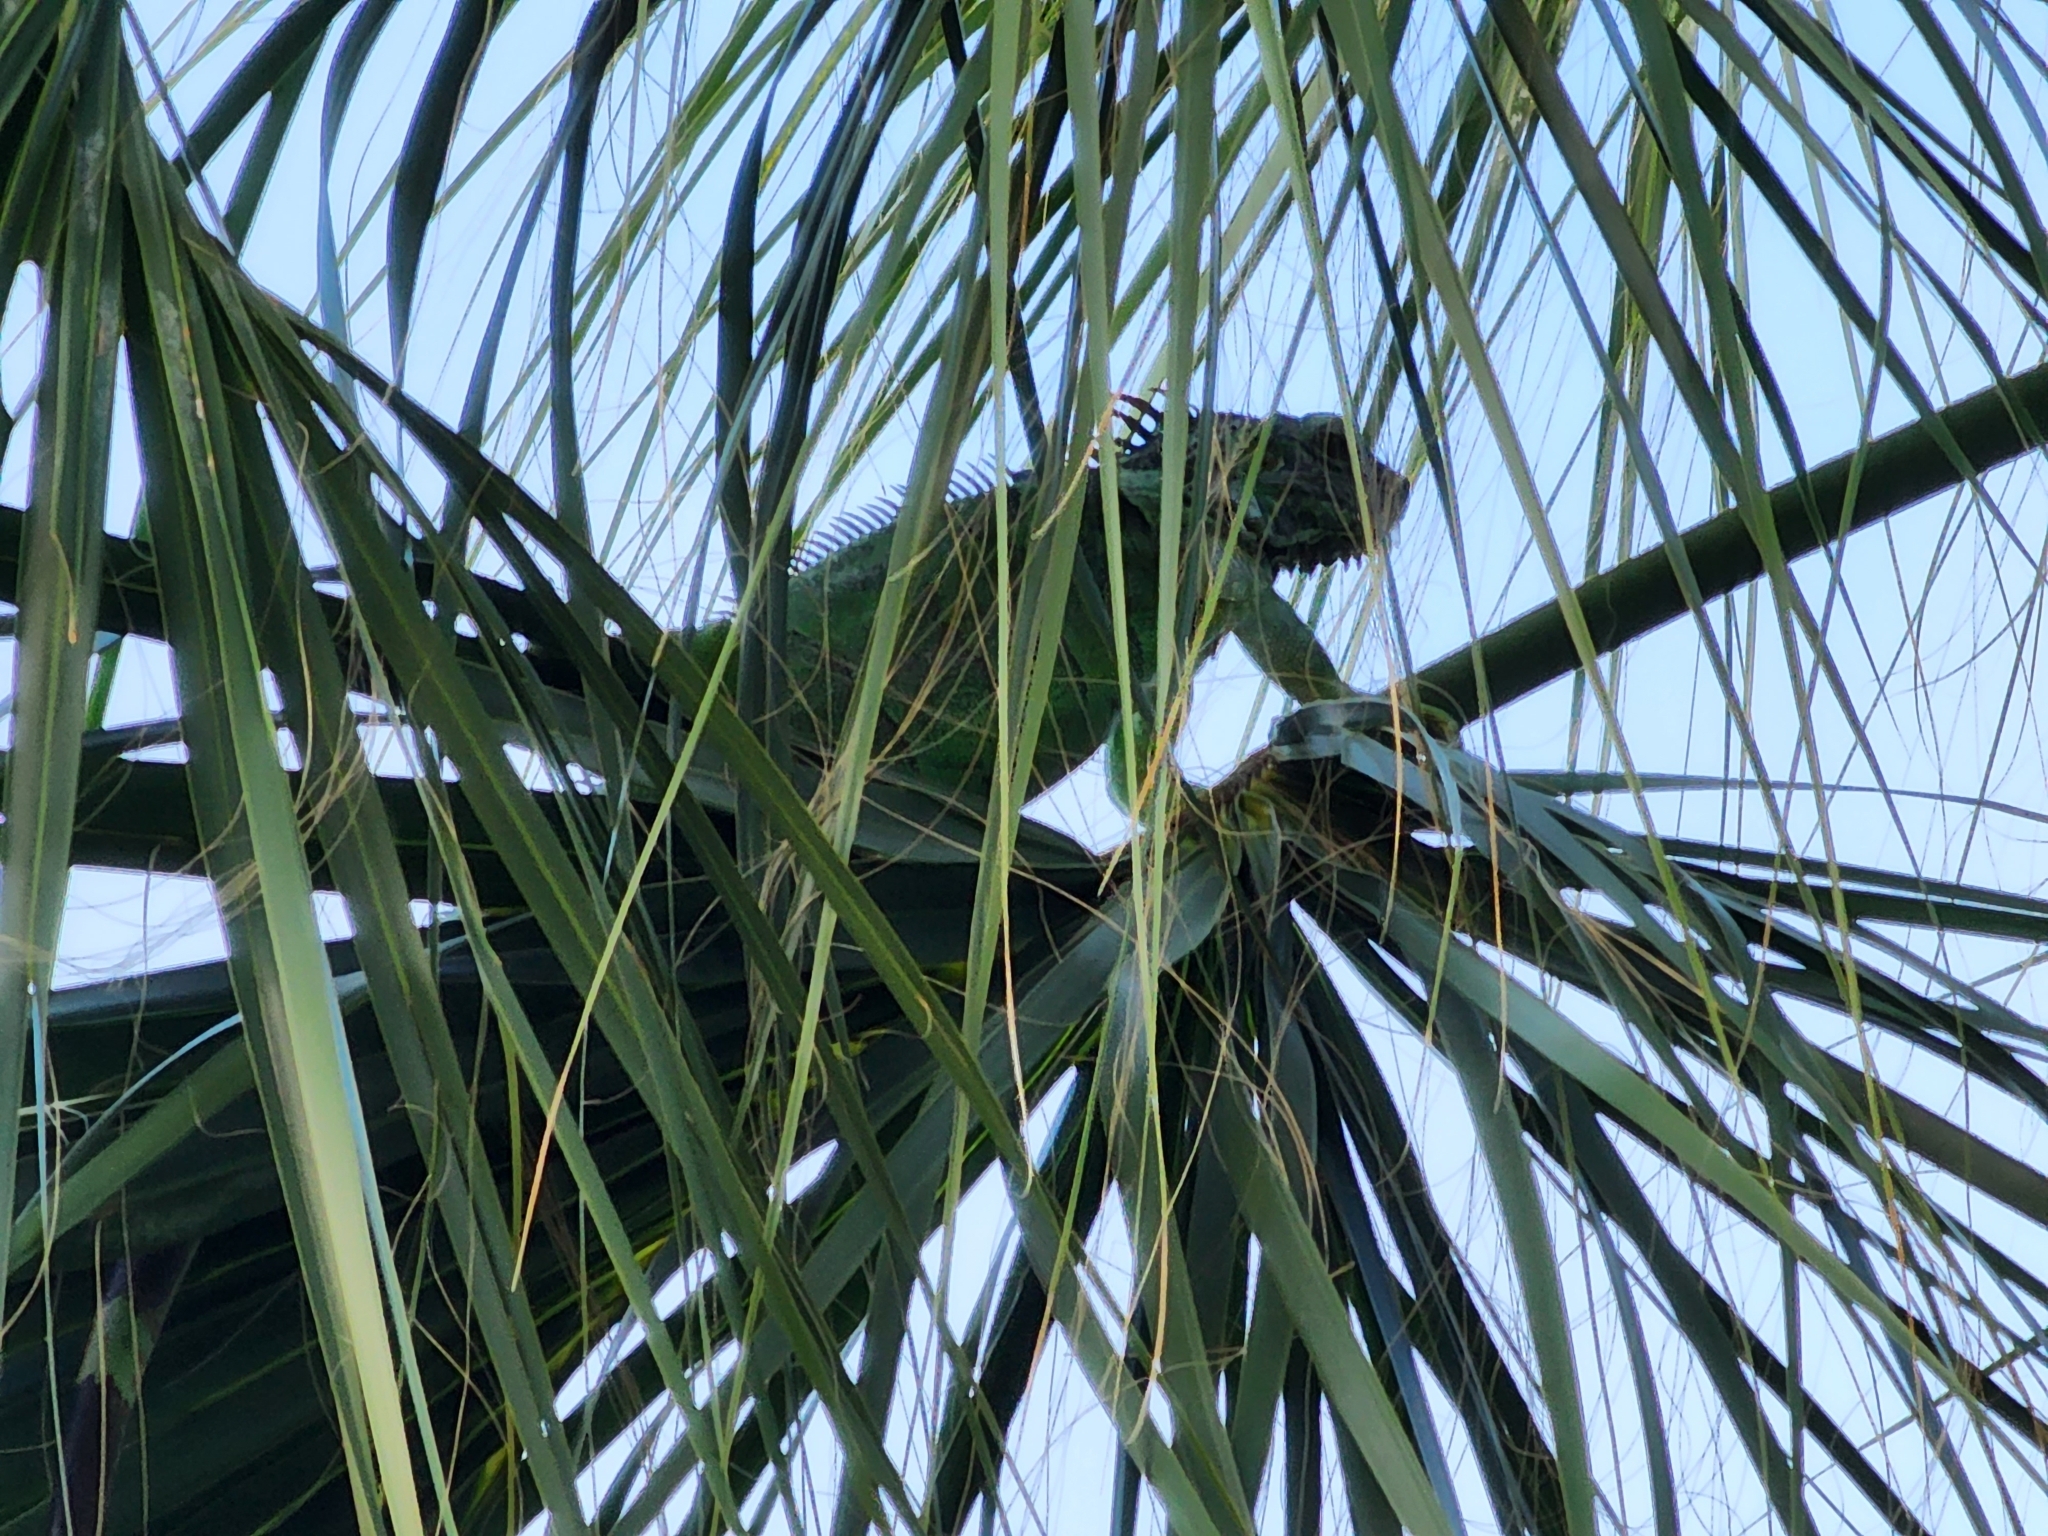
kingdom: Animalia
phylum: Chordata
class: Squamata
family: Iguanidae
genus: Iguana
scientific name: Iguana iguana
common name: Green iguana
